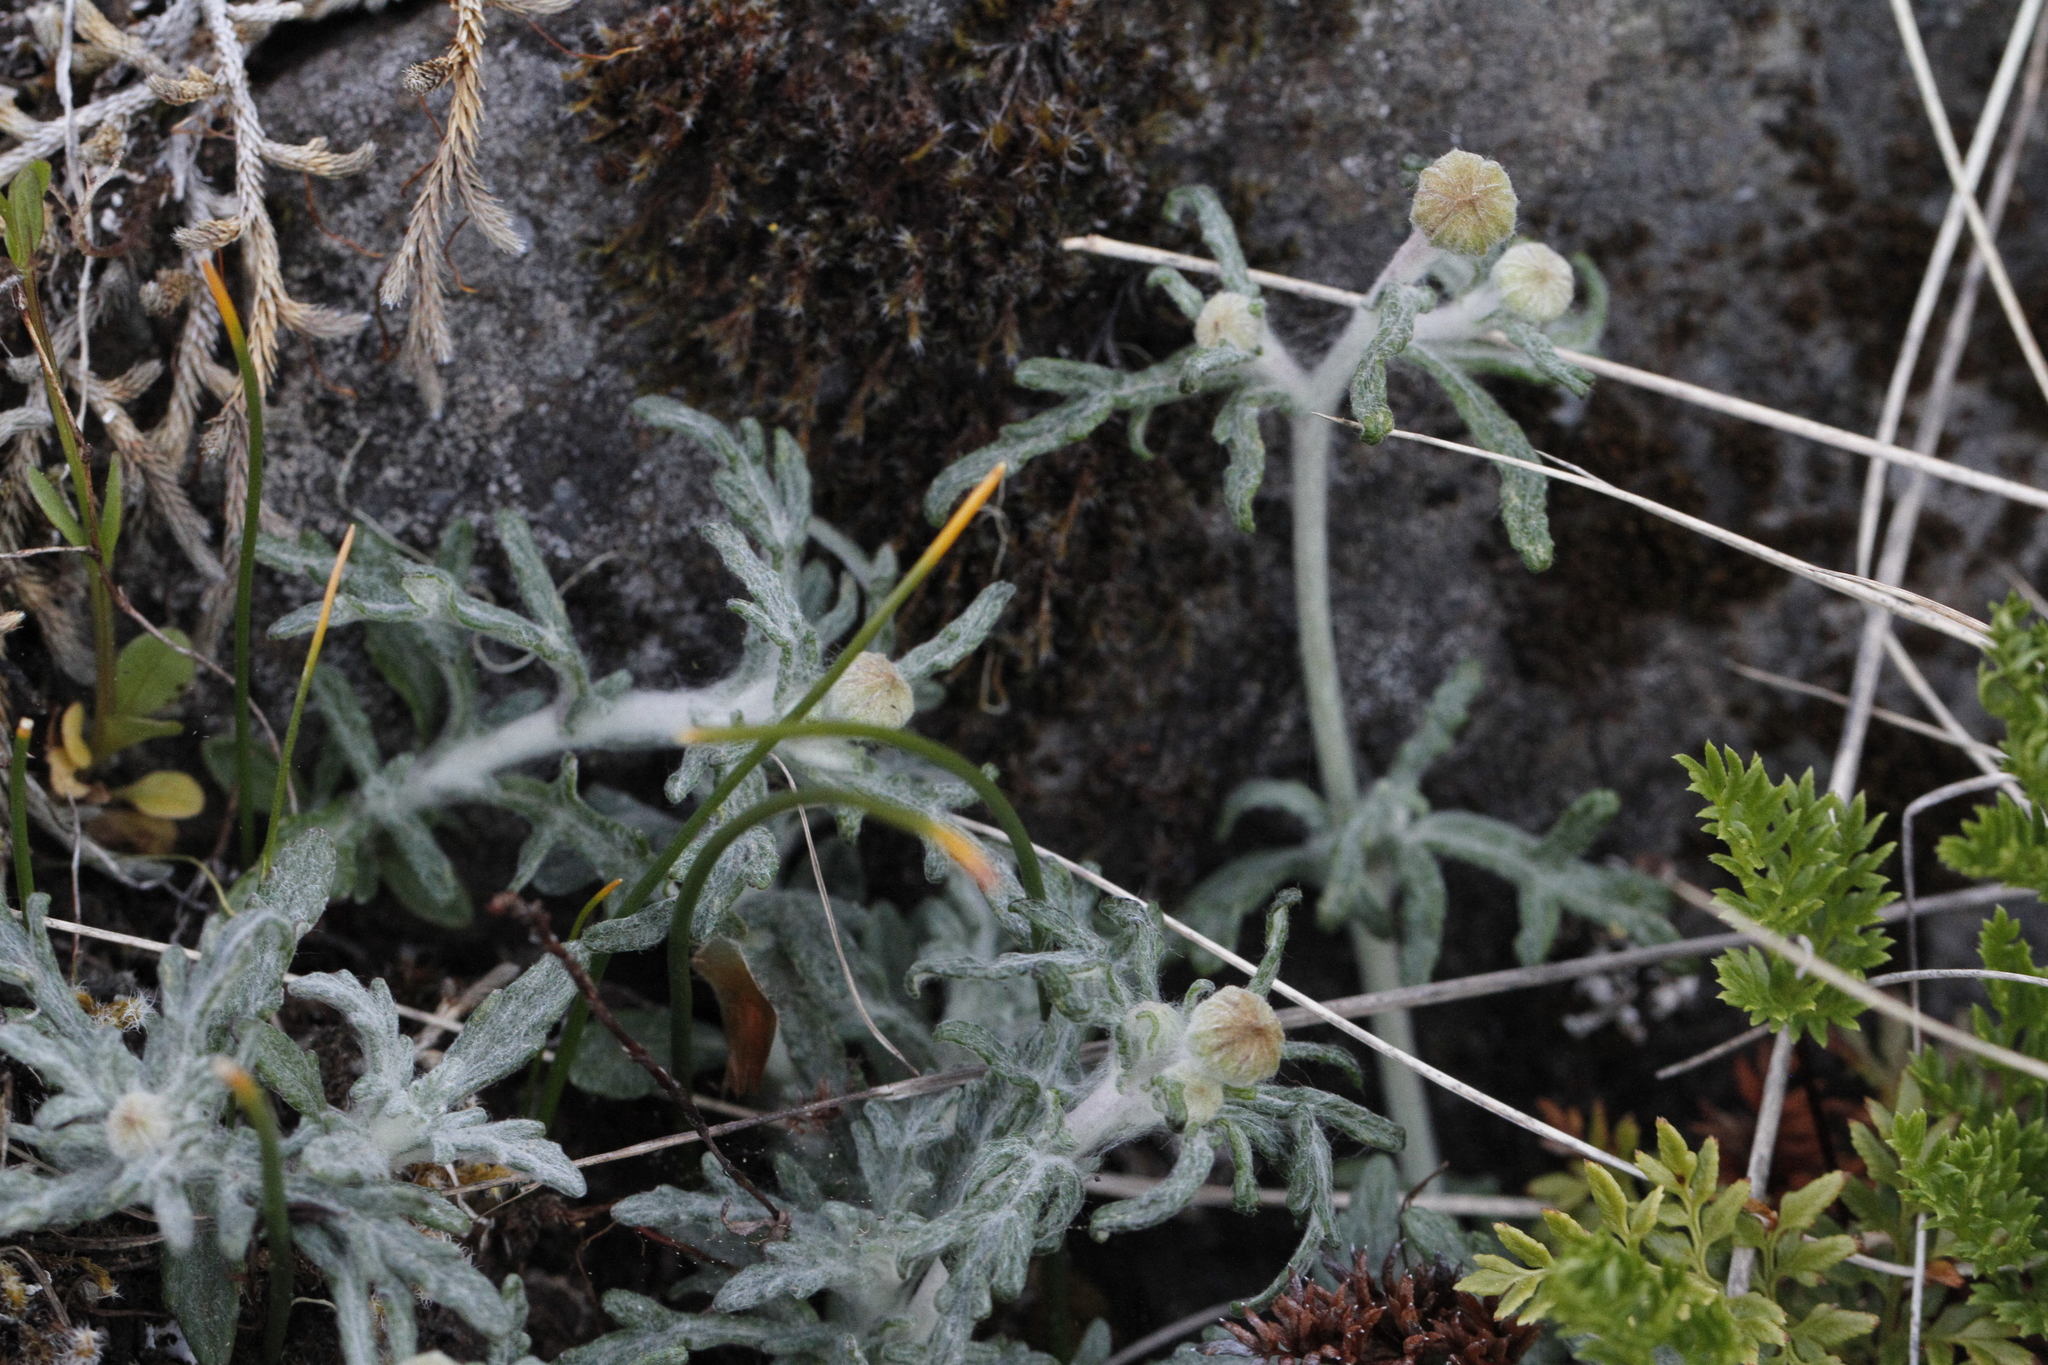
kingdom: Plantae
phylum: Tracheophyta
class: Magnoliopsida
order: Asterales
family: Asteraceae
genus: Eriophyllum
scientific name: Eriophyllum lanatum
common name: Common woolly-sunflower
